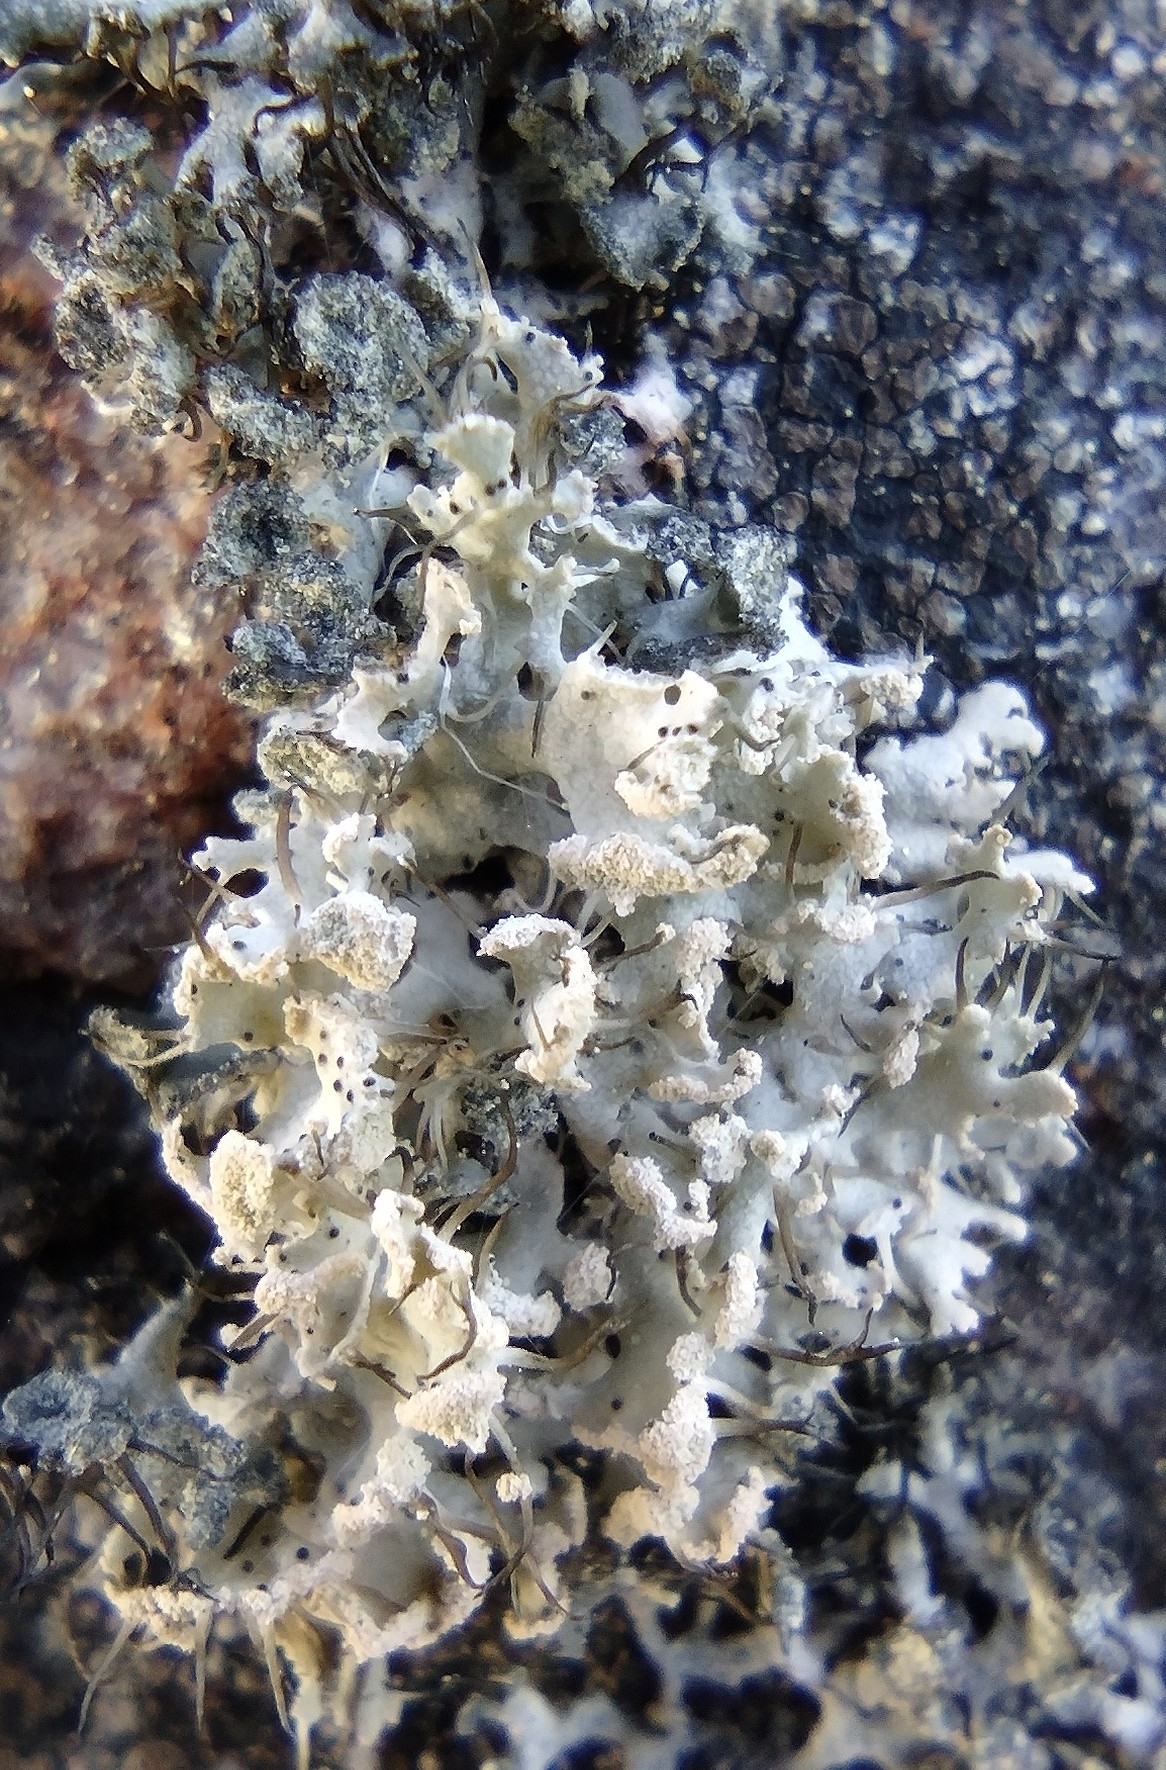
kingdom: Fungi
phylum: Ascomycota
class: Lecanoromycetes
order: Caliciales
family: Physciaceae
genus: Physcia
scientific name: Physcia tenella
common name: Fringed rosette lichen
